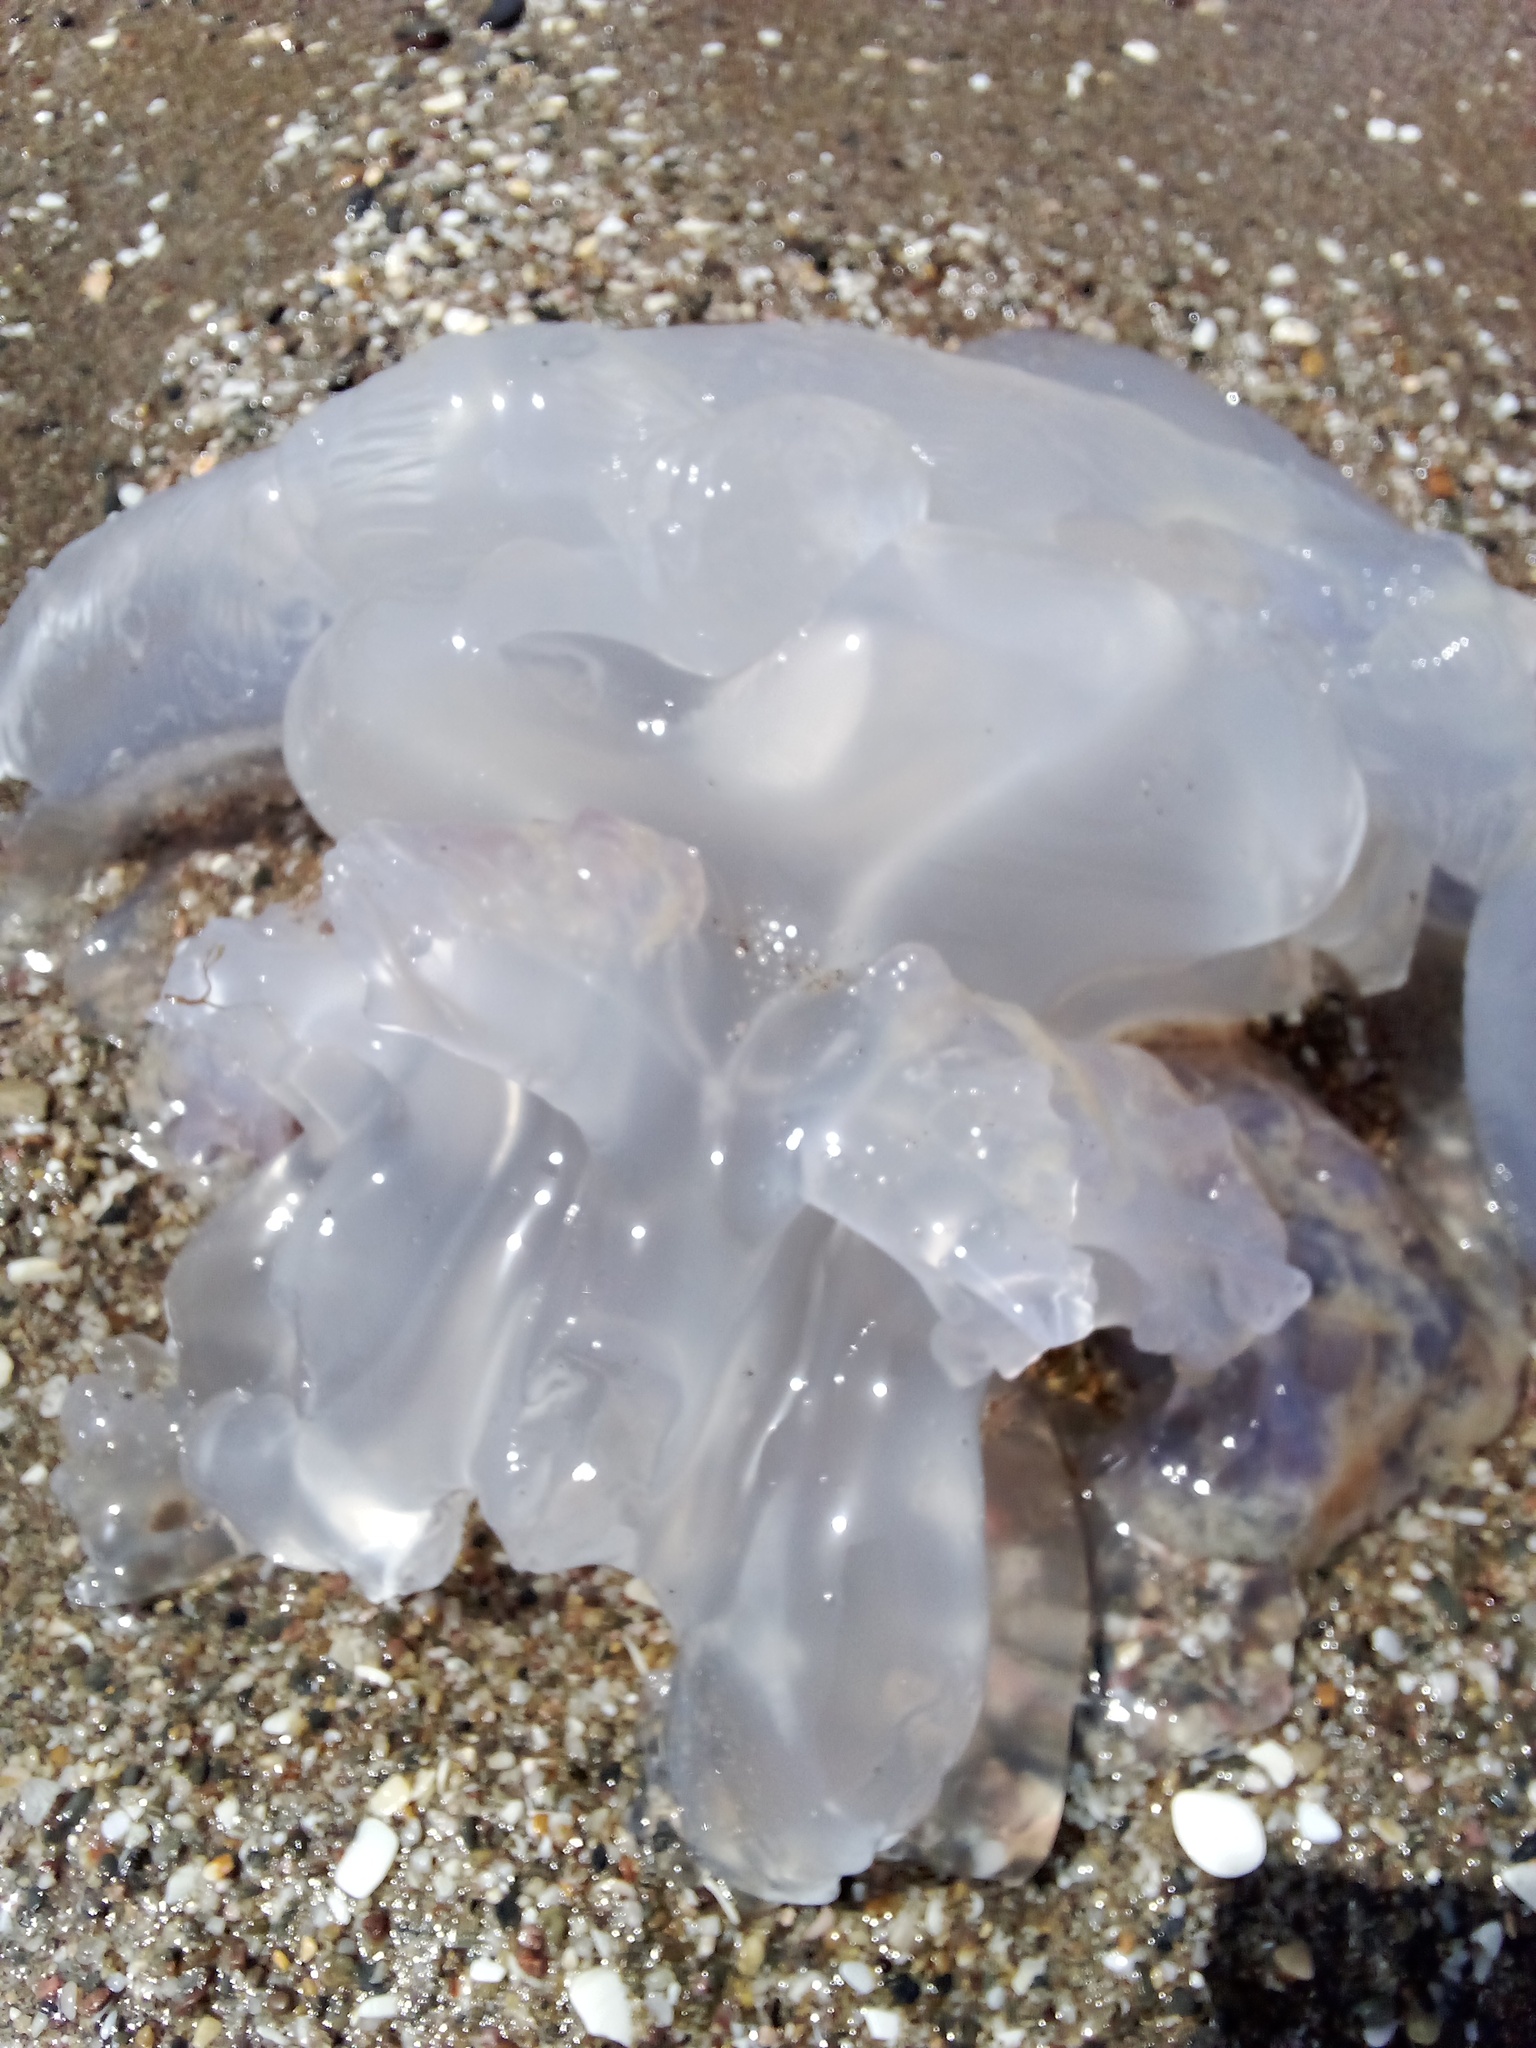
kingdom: Animalia
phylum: Cnidaria
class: Scyphozoa
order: Rhizostomeae
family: Rhizostomatidae
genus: Rhizostoma
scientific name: Rhizostoma pulmo
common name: Barrel jellyfish
